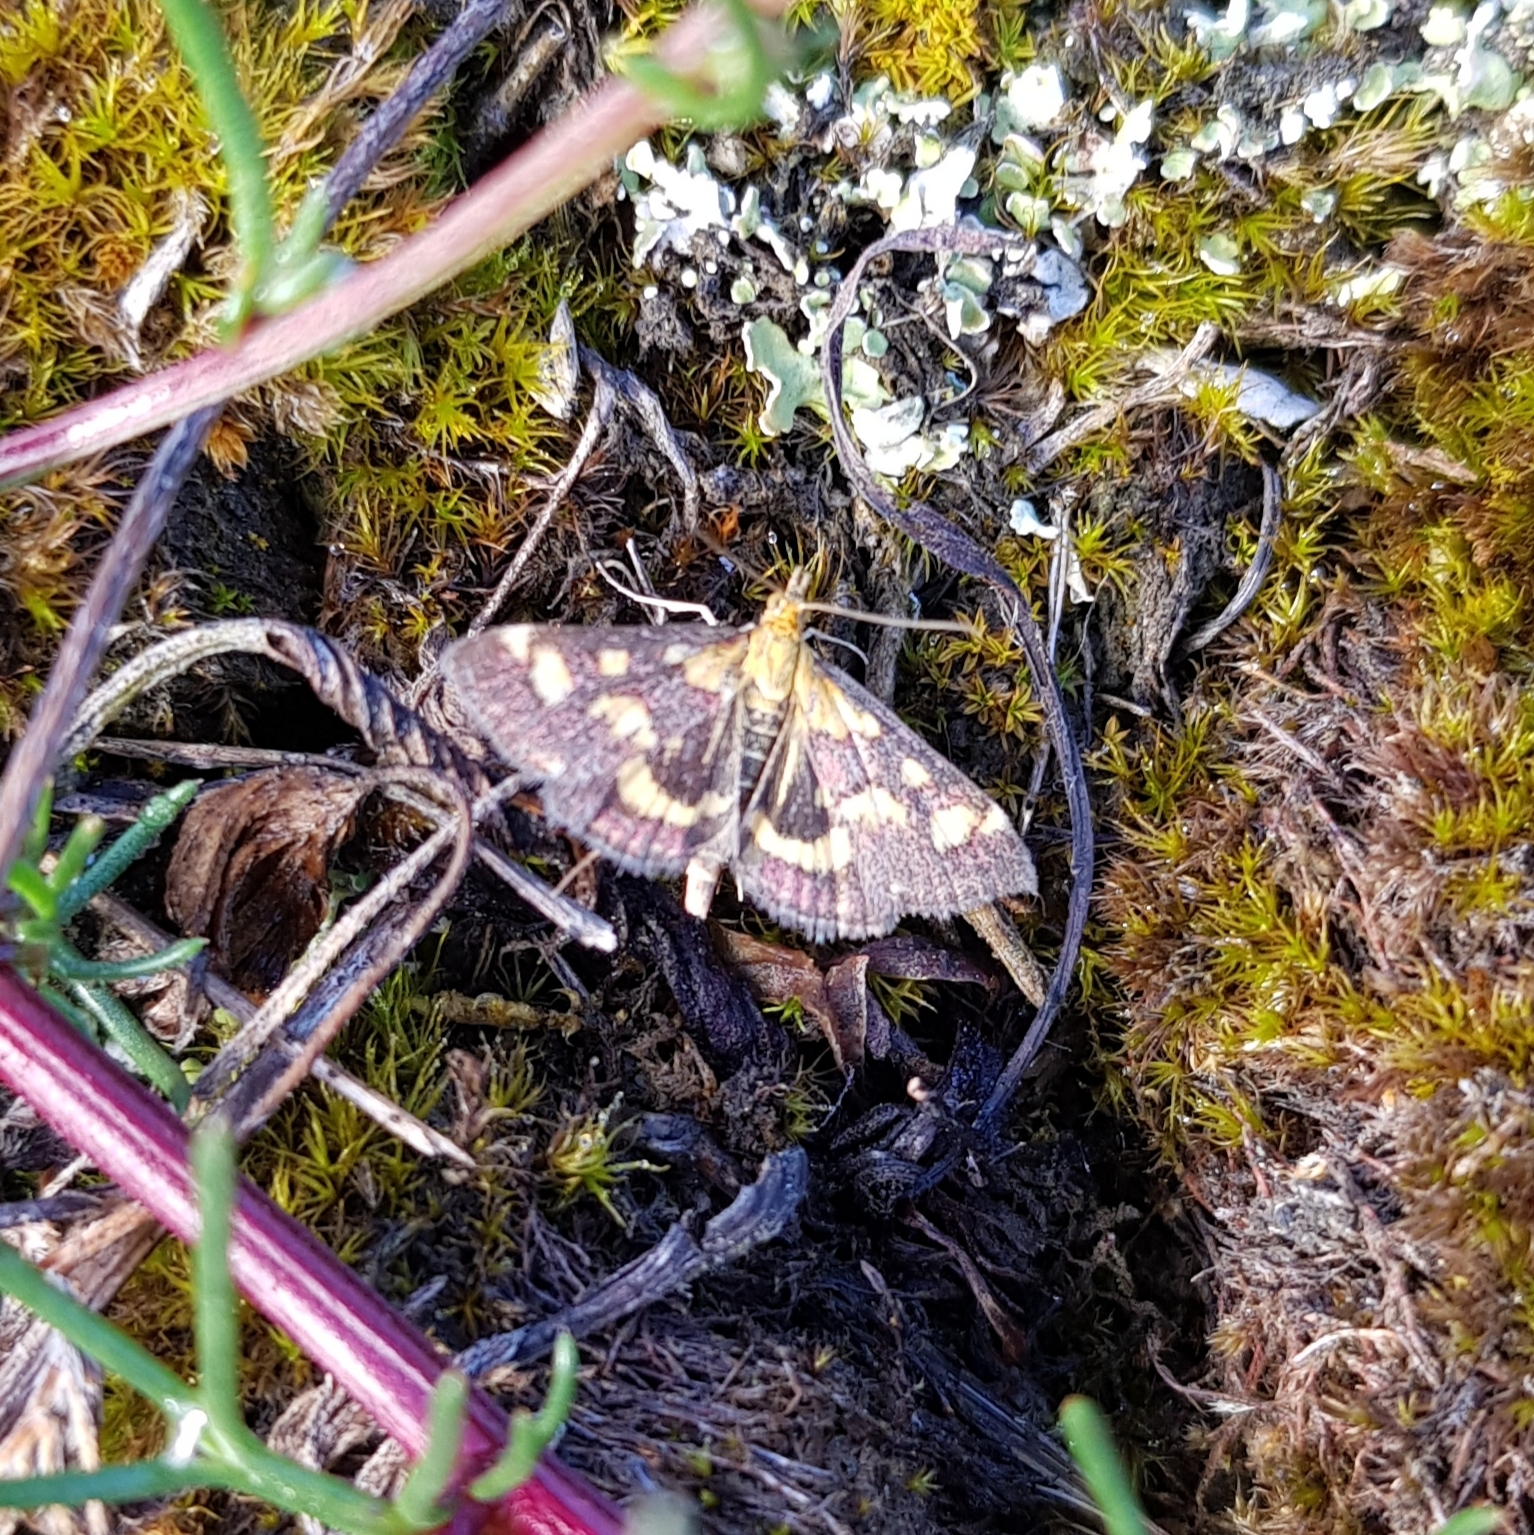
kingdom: Animalia
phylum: Arthropoda
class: Insecta
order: Lepidoptera
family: Crambidae
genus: Pyrausta
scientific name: Pyrausta purpuralis
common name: Common purple & gold
